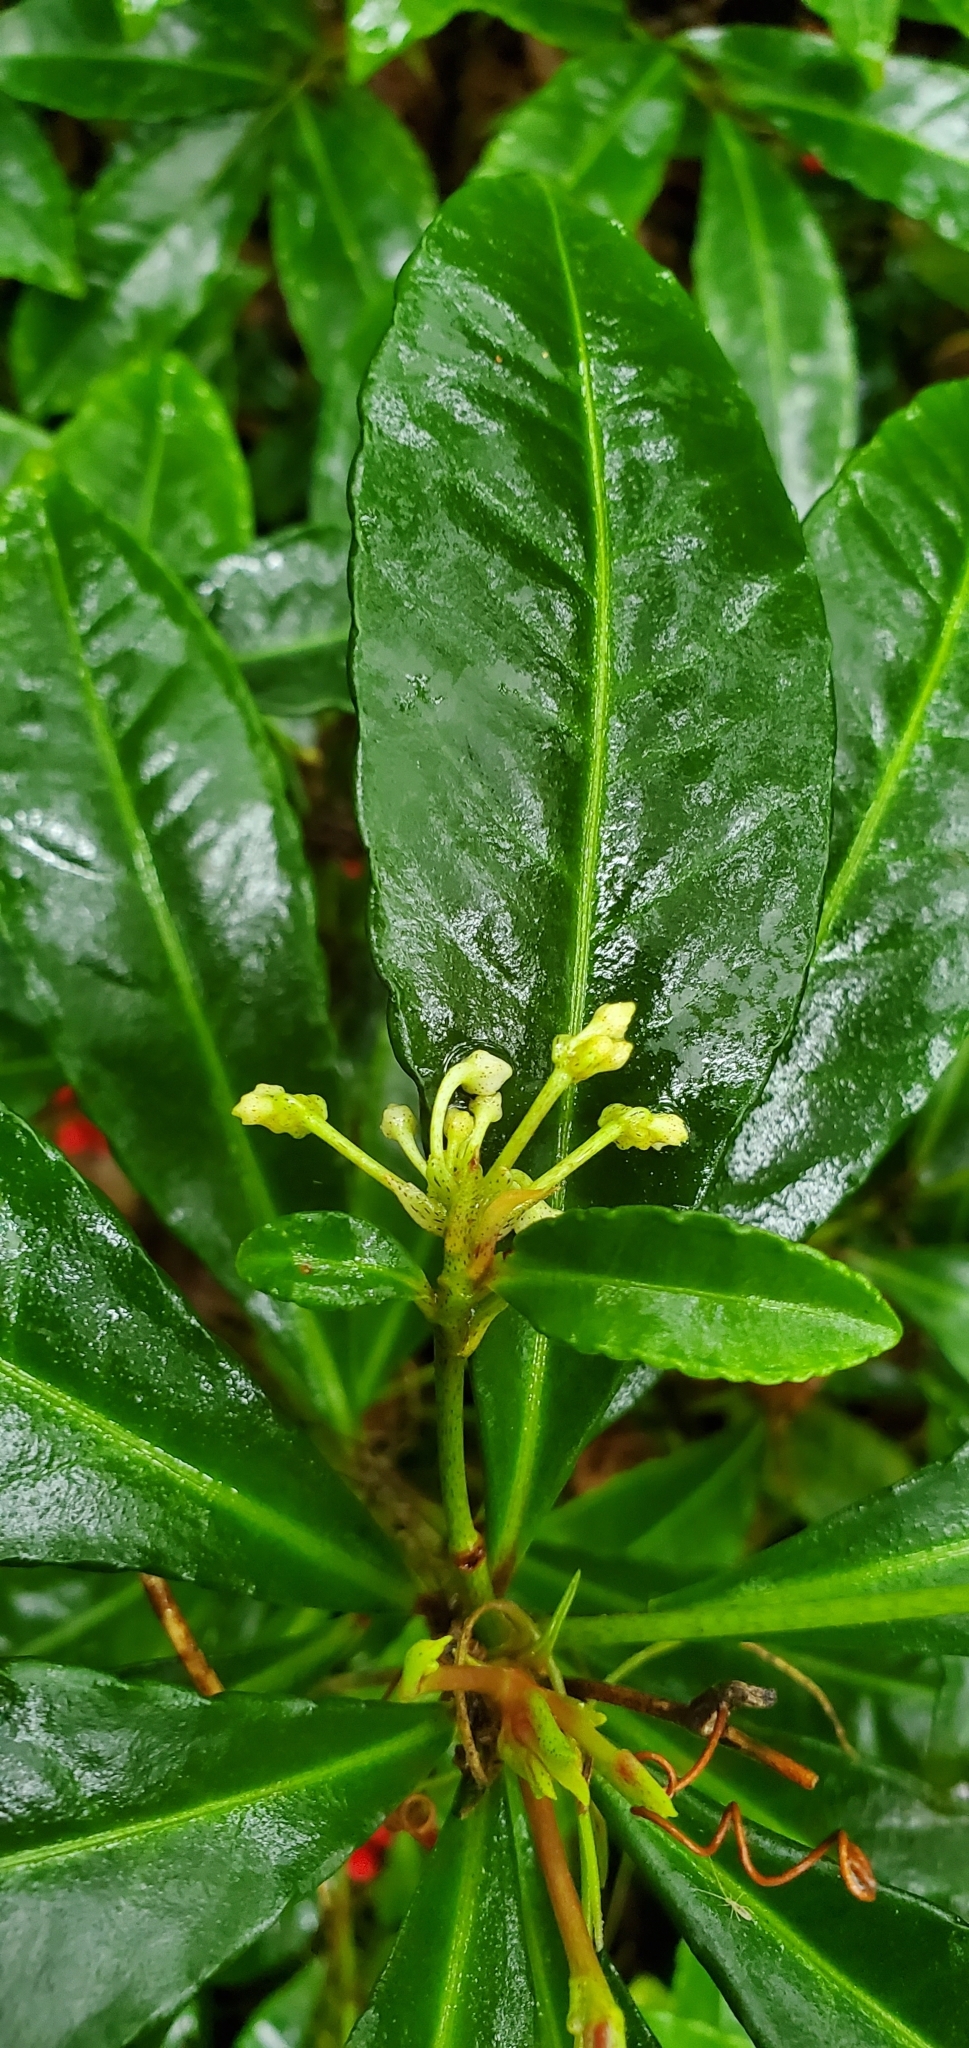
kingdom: Plantae
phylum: Tracheophyta
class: Magnoliopsida
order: Ericales
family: Primulaceae
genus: Ardisia
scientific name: Ardisia crenata
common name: Hen's eyes
